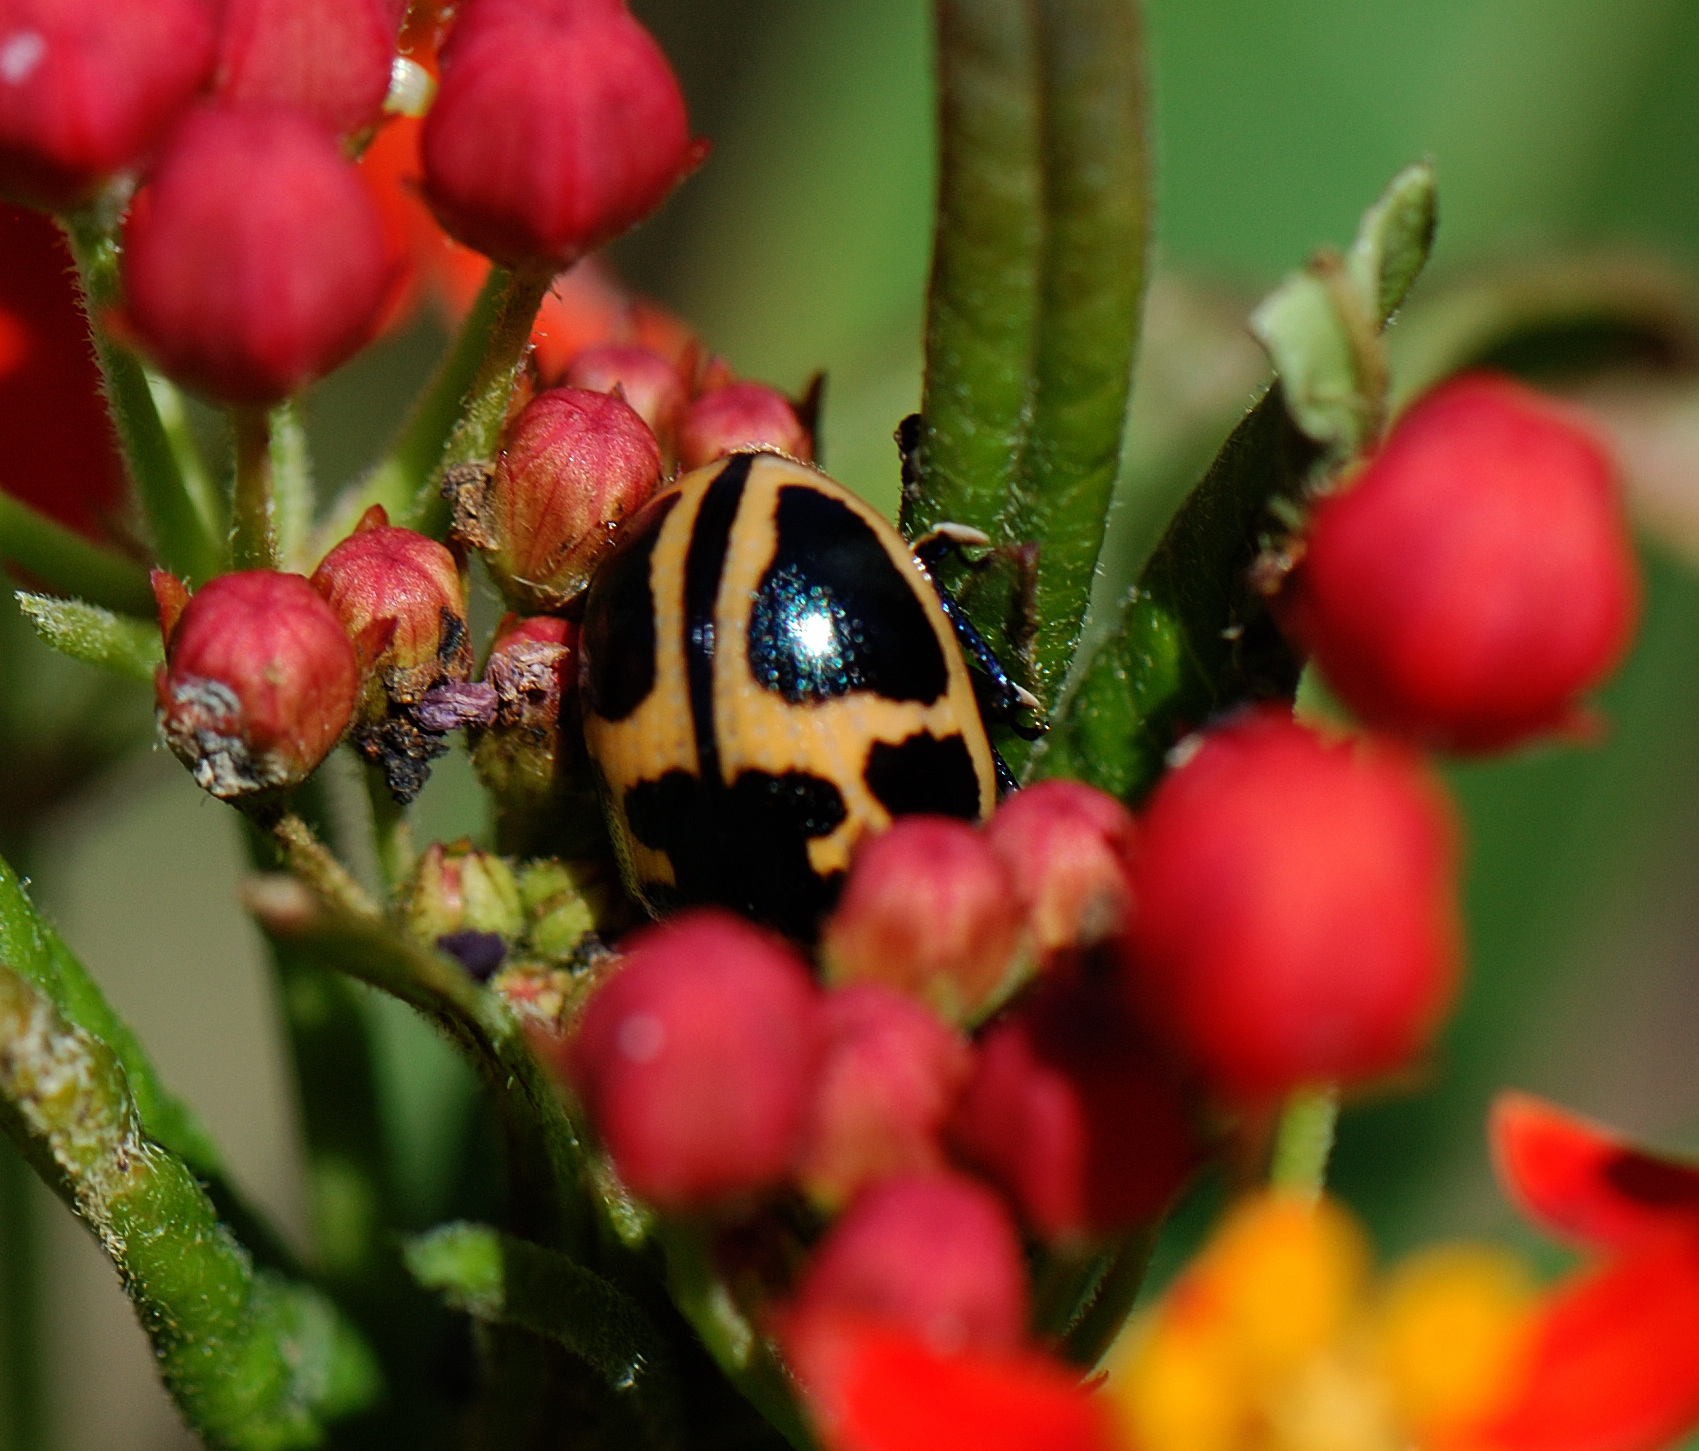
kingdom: Animalia
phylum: Arthropoda
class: Insecta
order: Coleoptera
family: Chrysomelidae
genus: Labidomera
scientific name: Labidomera clivicollis
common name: Swamp milkweed leaf beetle
